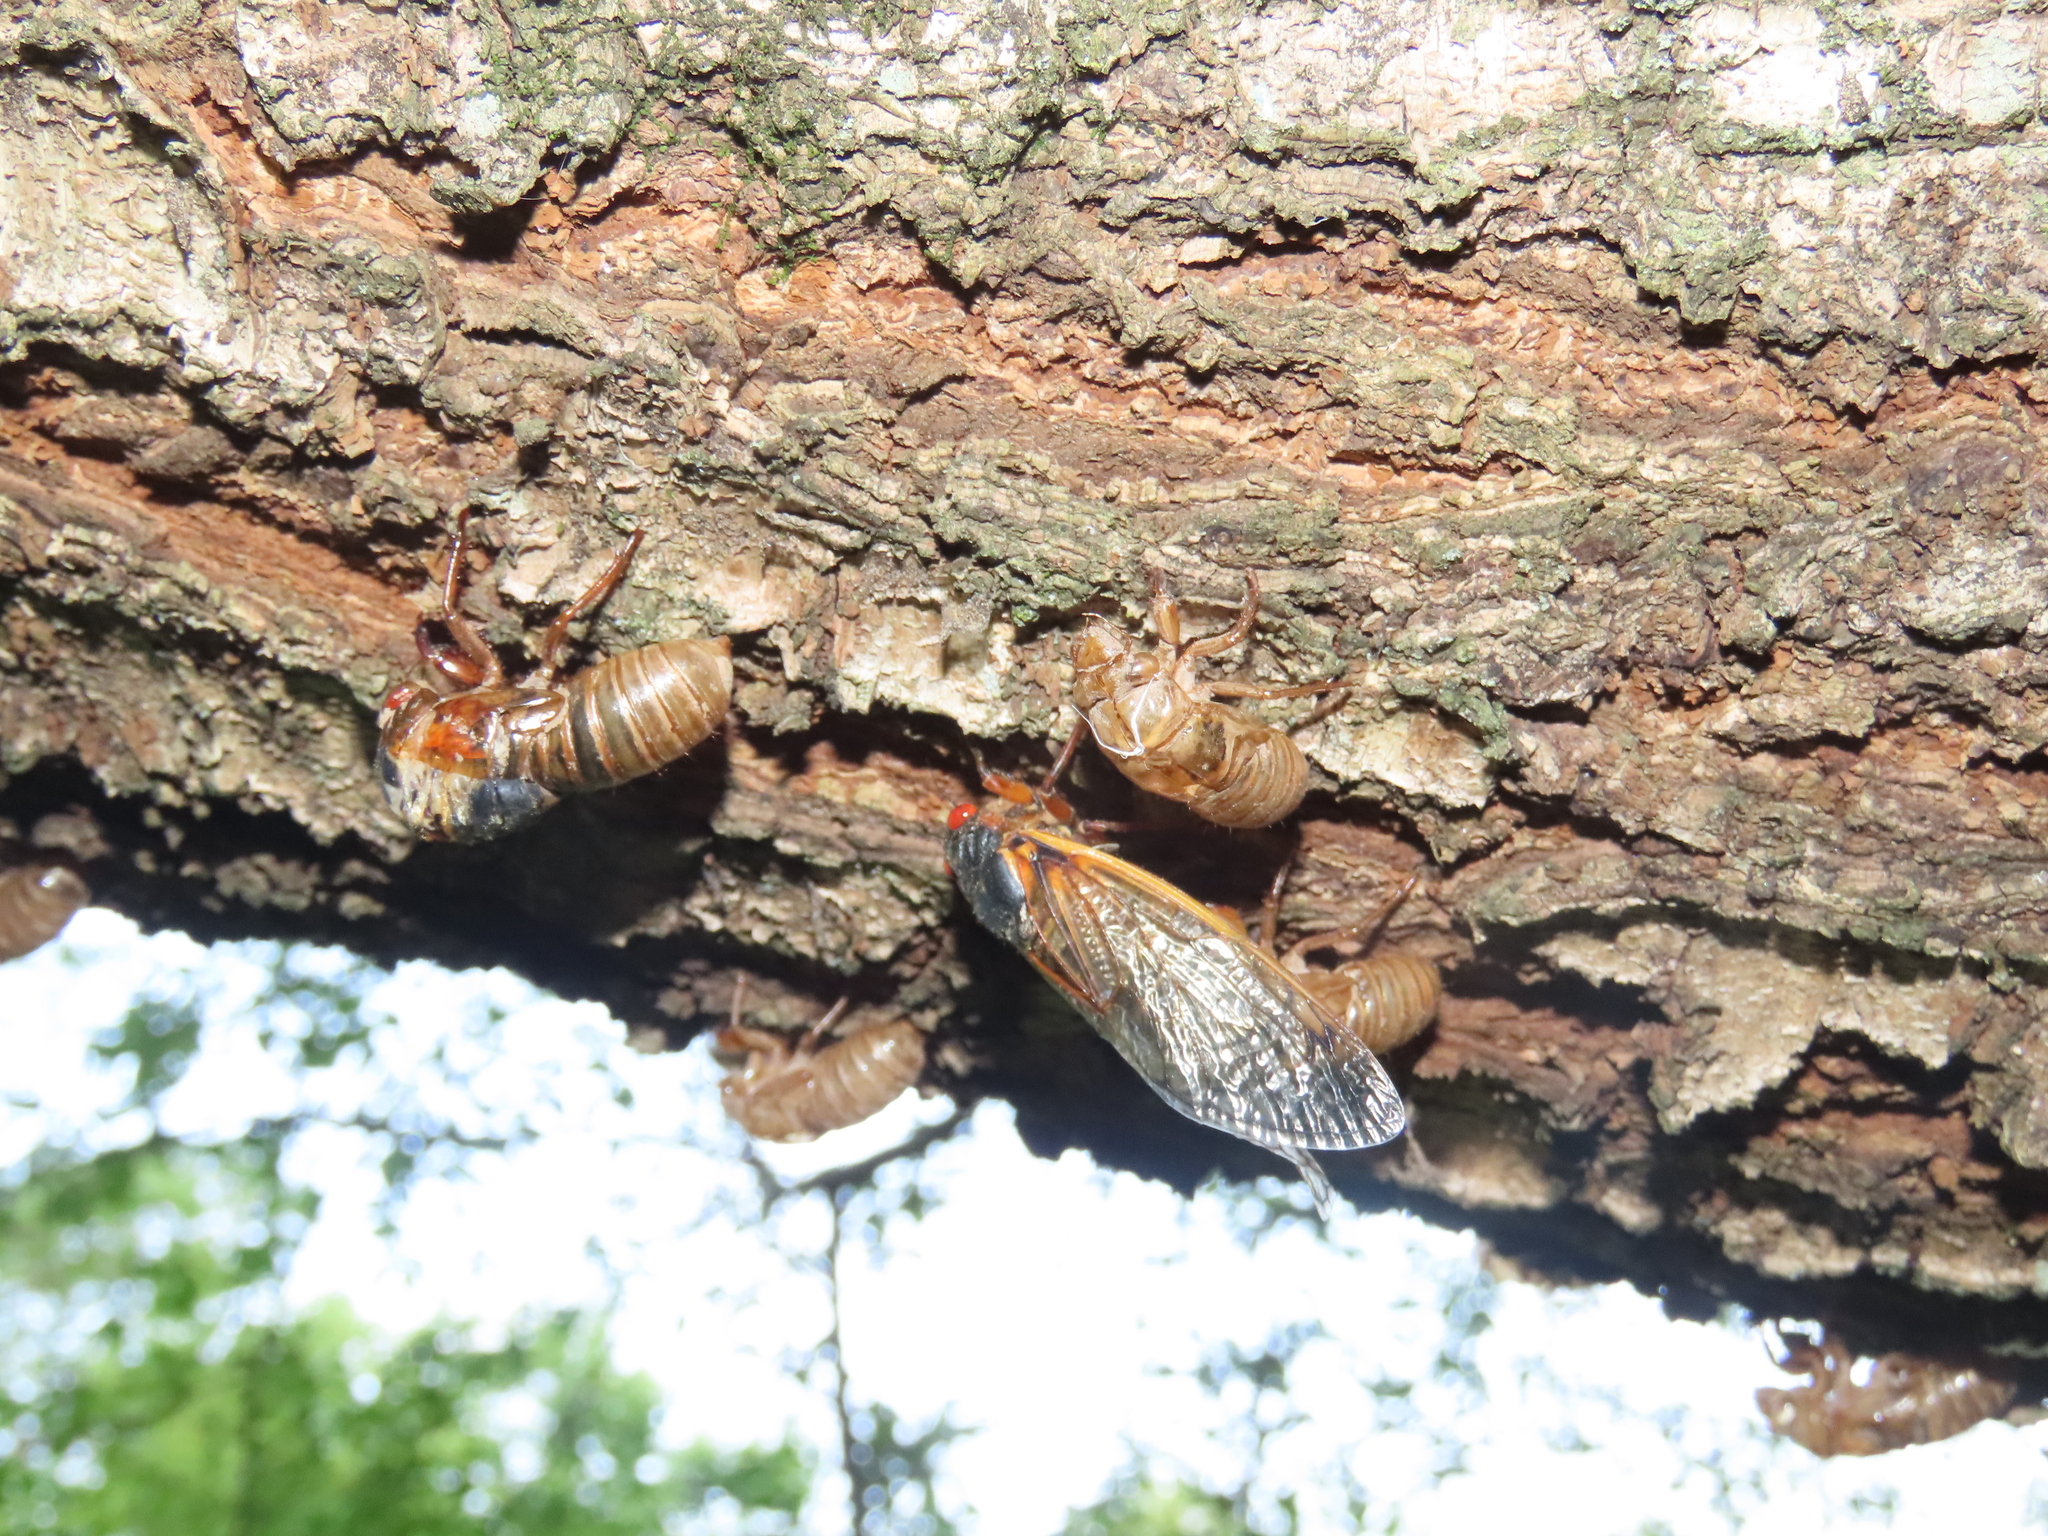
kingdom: Animalia
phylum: Arthropoda
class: Insecta
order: Hemiptera
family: Cicadidae
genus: Magicicada
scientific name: Magicicada septendecim
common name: Periodical cicada
